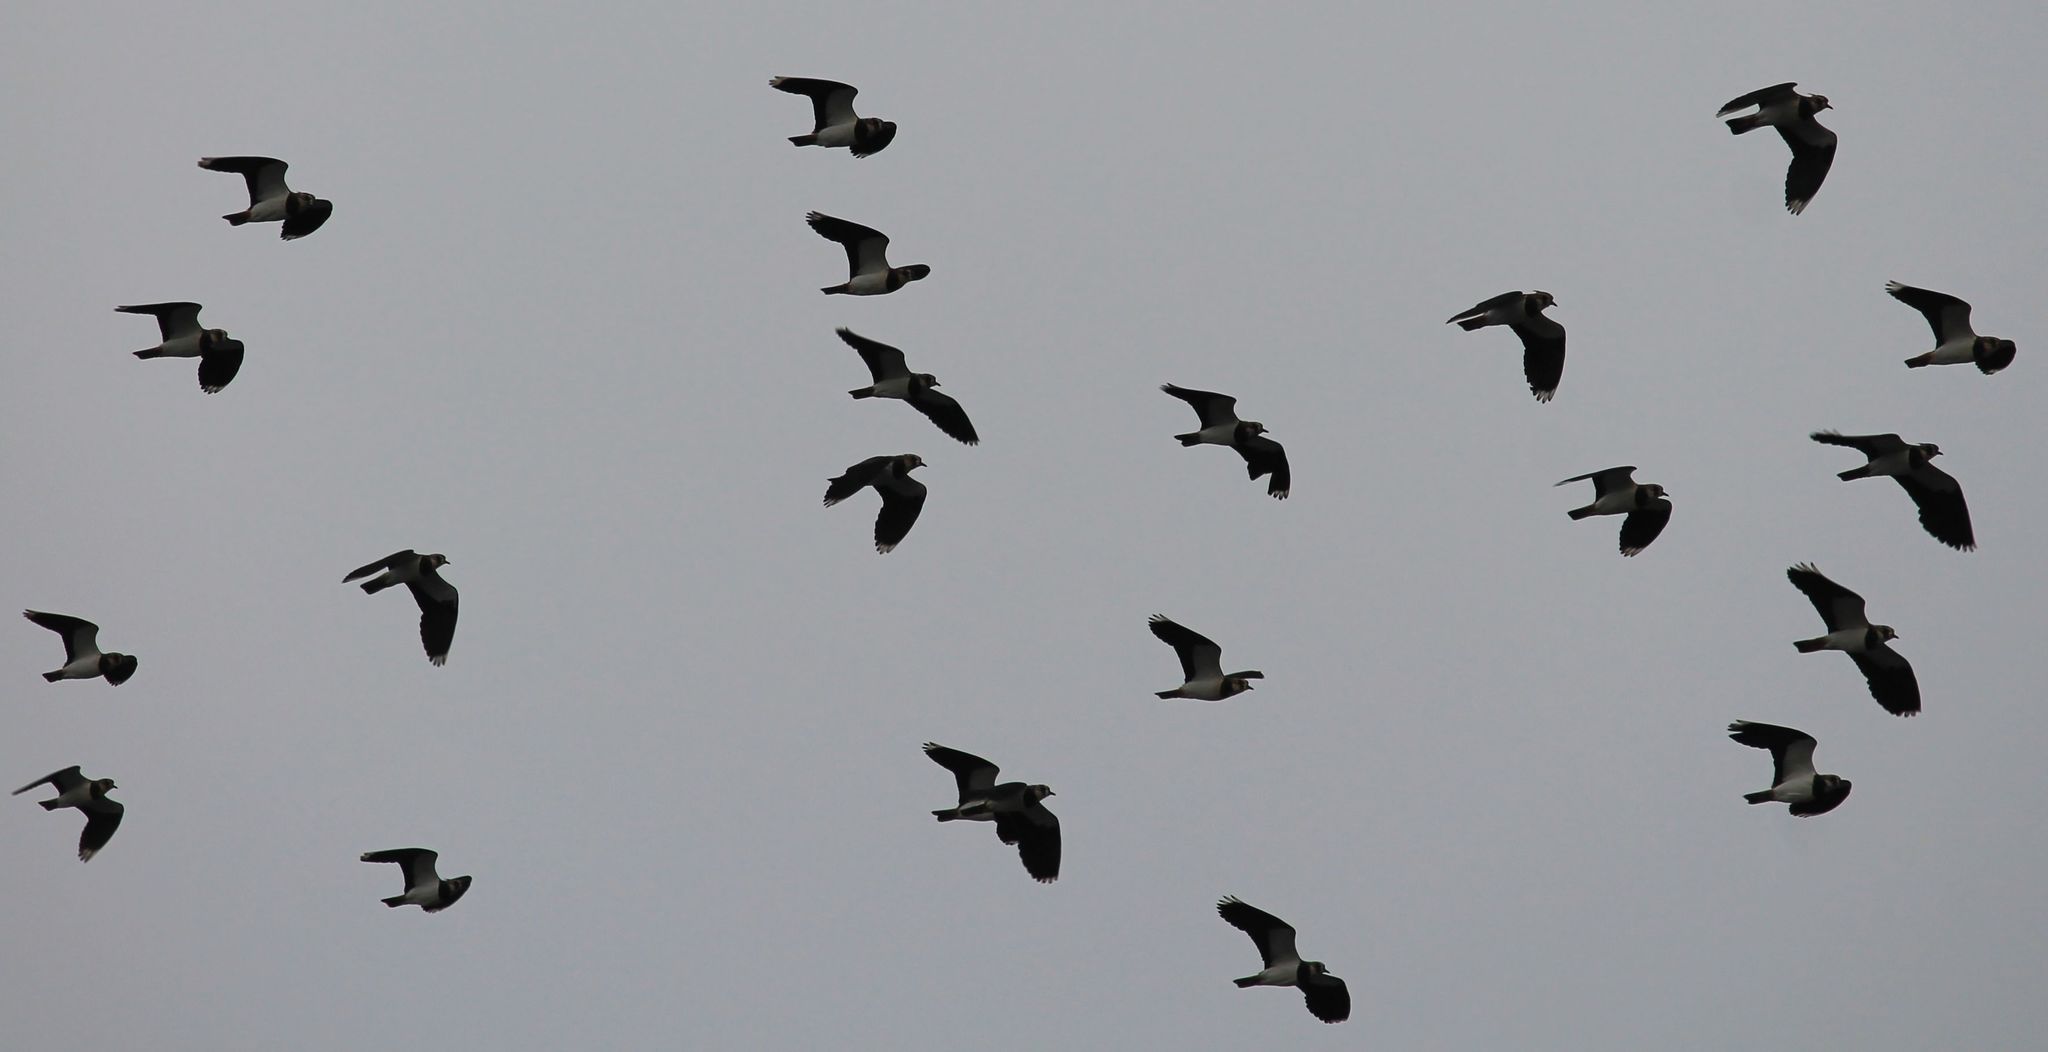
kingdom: Animalia
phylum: Chordata
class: Aves
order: Charadriiformes
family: Charadriidae
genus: Vanellus
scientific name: Vanellus vanellus
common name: Northern lapwing
